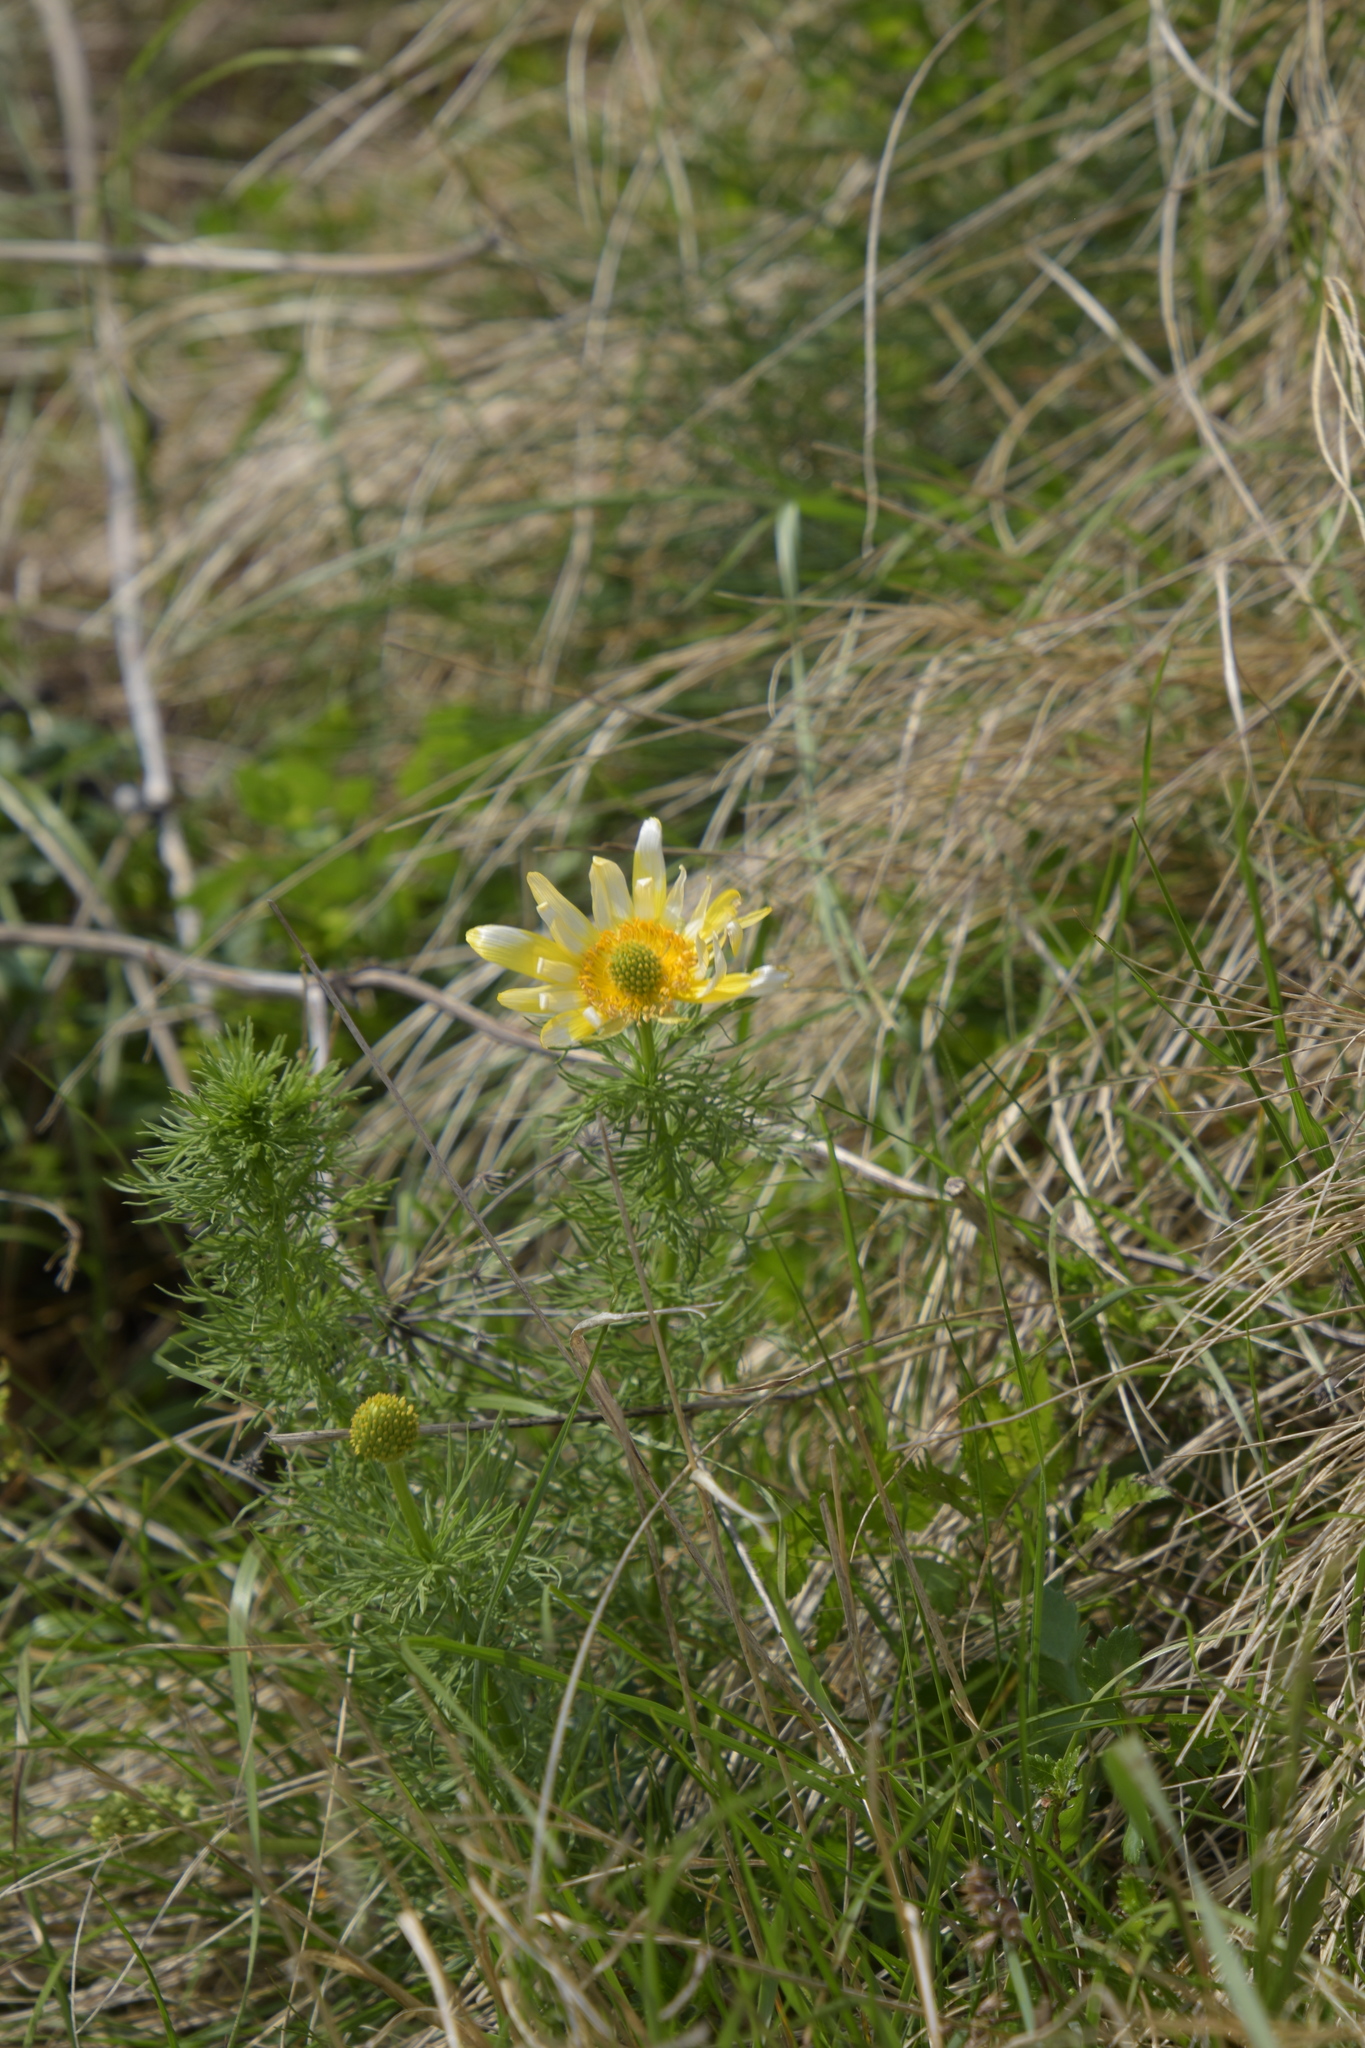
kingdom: Plantae
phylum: Tracheophyta
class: Magnoliopsida
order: Ranunculales
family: Ranunculaceae
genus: Adonis
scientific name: Adonis vernalis
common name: Yellow pheasants-eye
